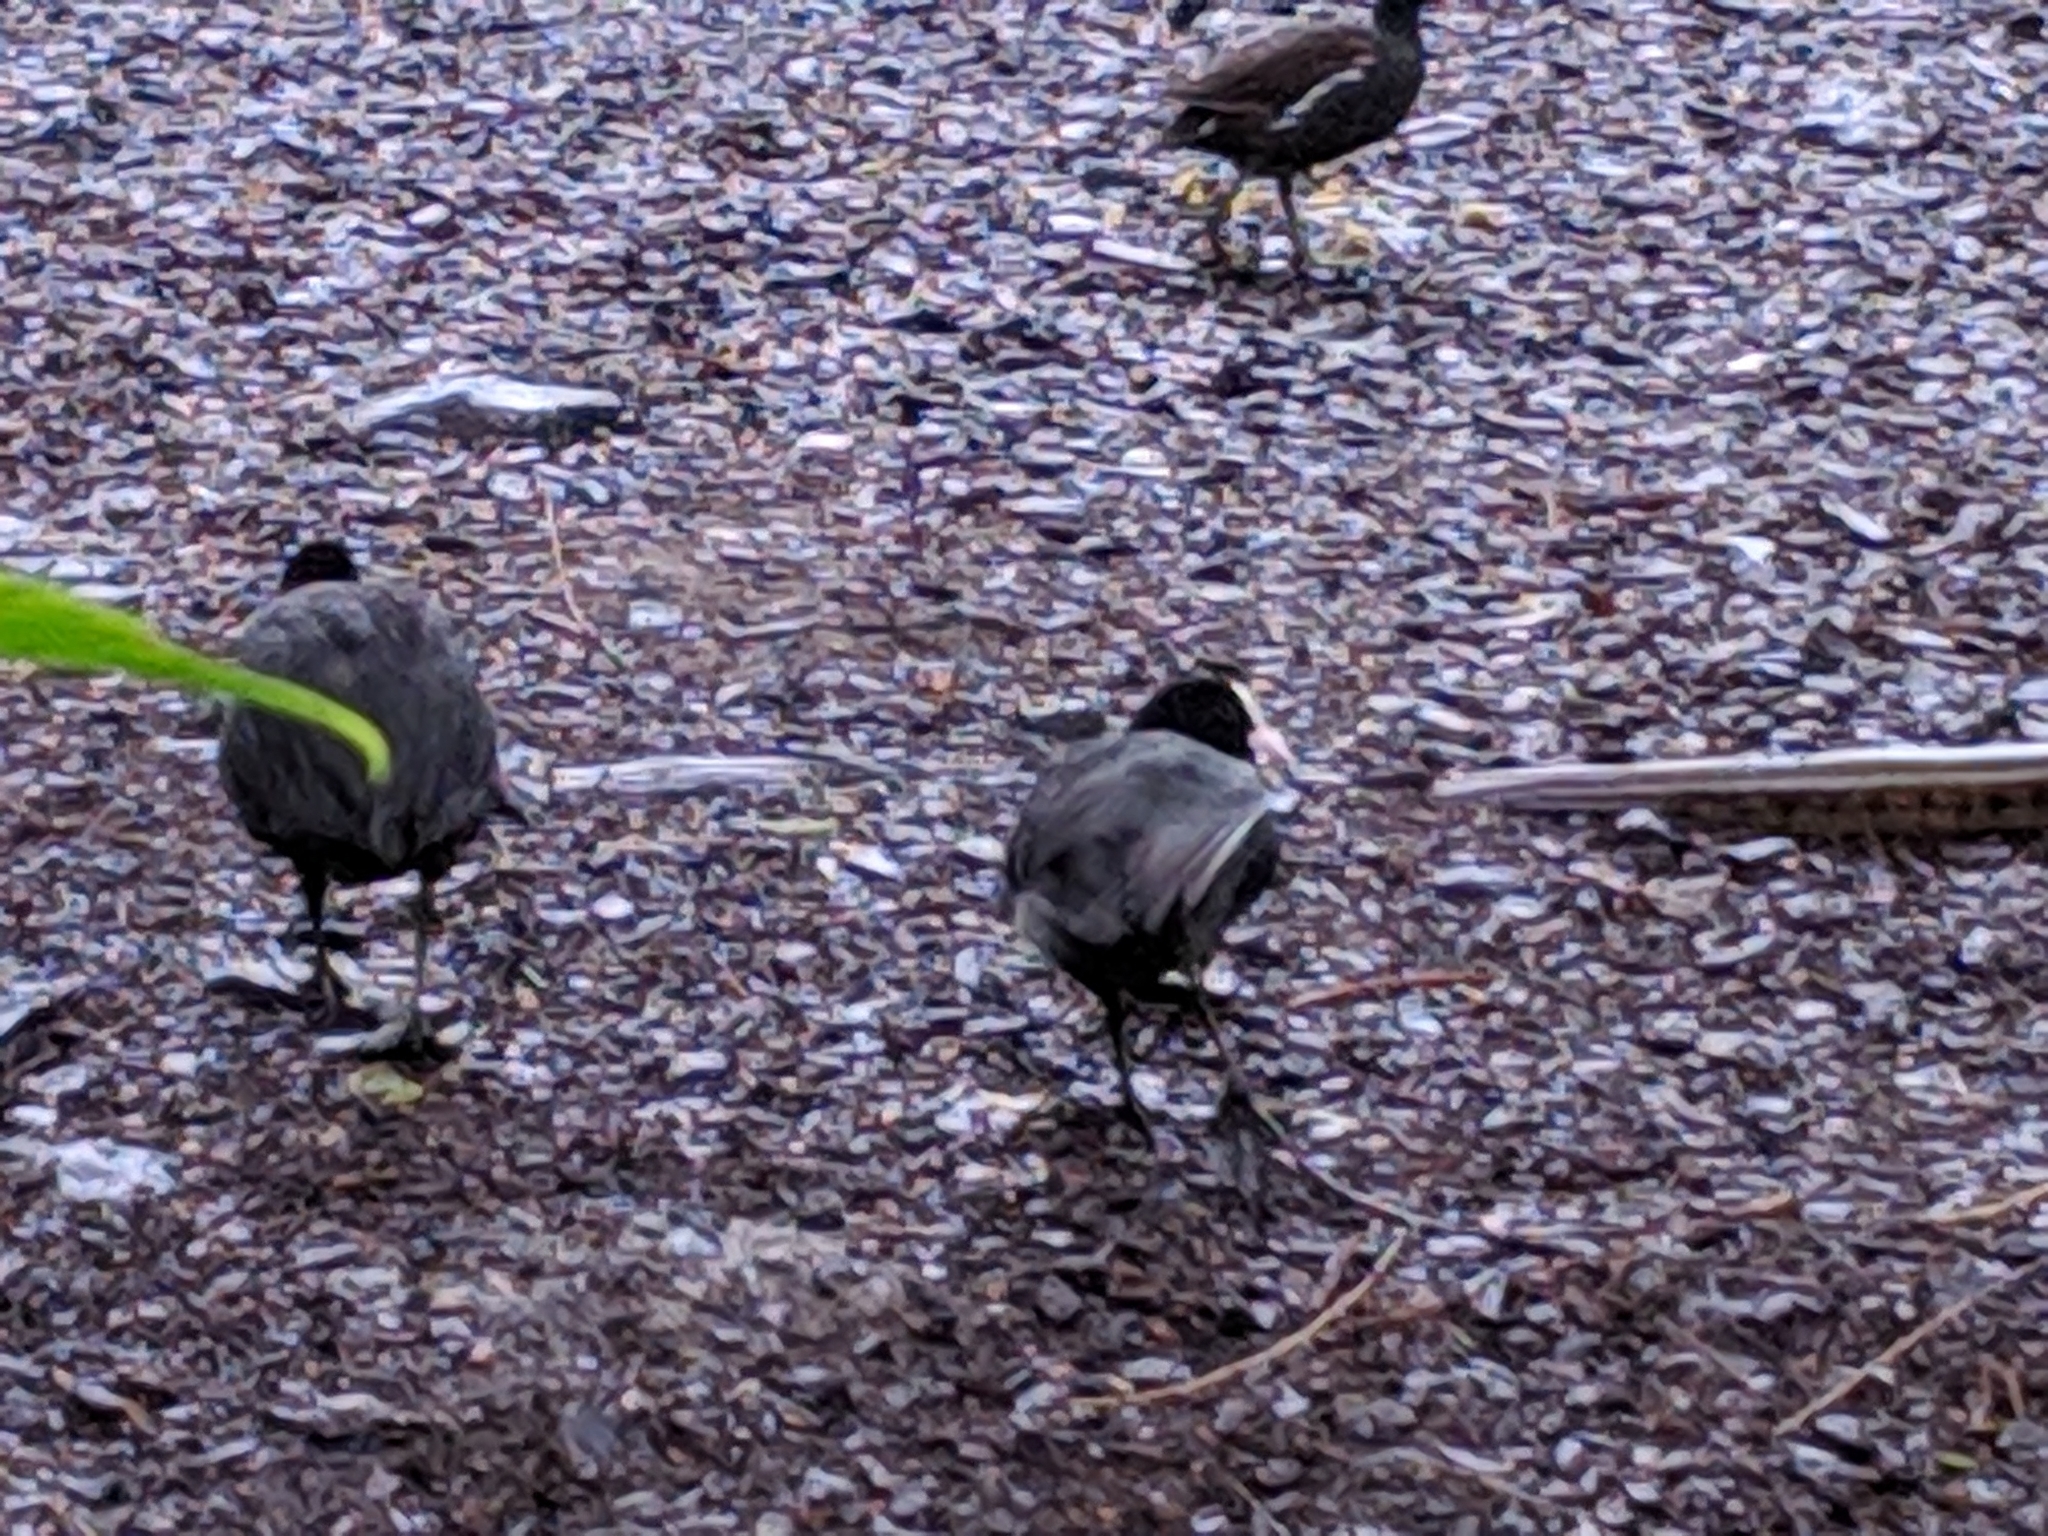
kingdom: Animalia
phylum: Chordata
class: Aves
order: Gruiformes
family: Rallidae
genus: Fulica
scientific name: Fulica atra
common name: Eurasian coot
